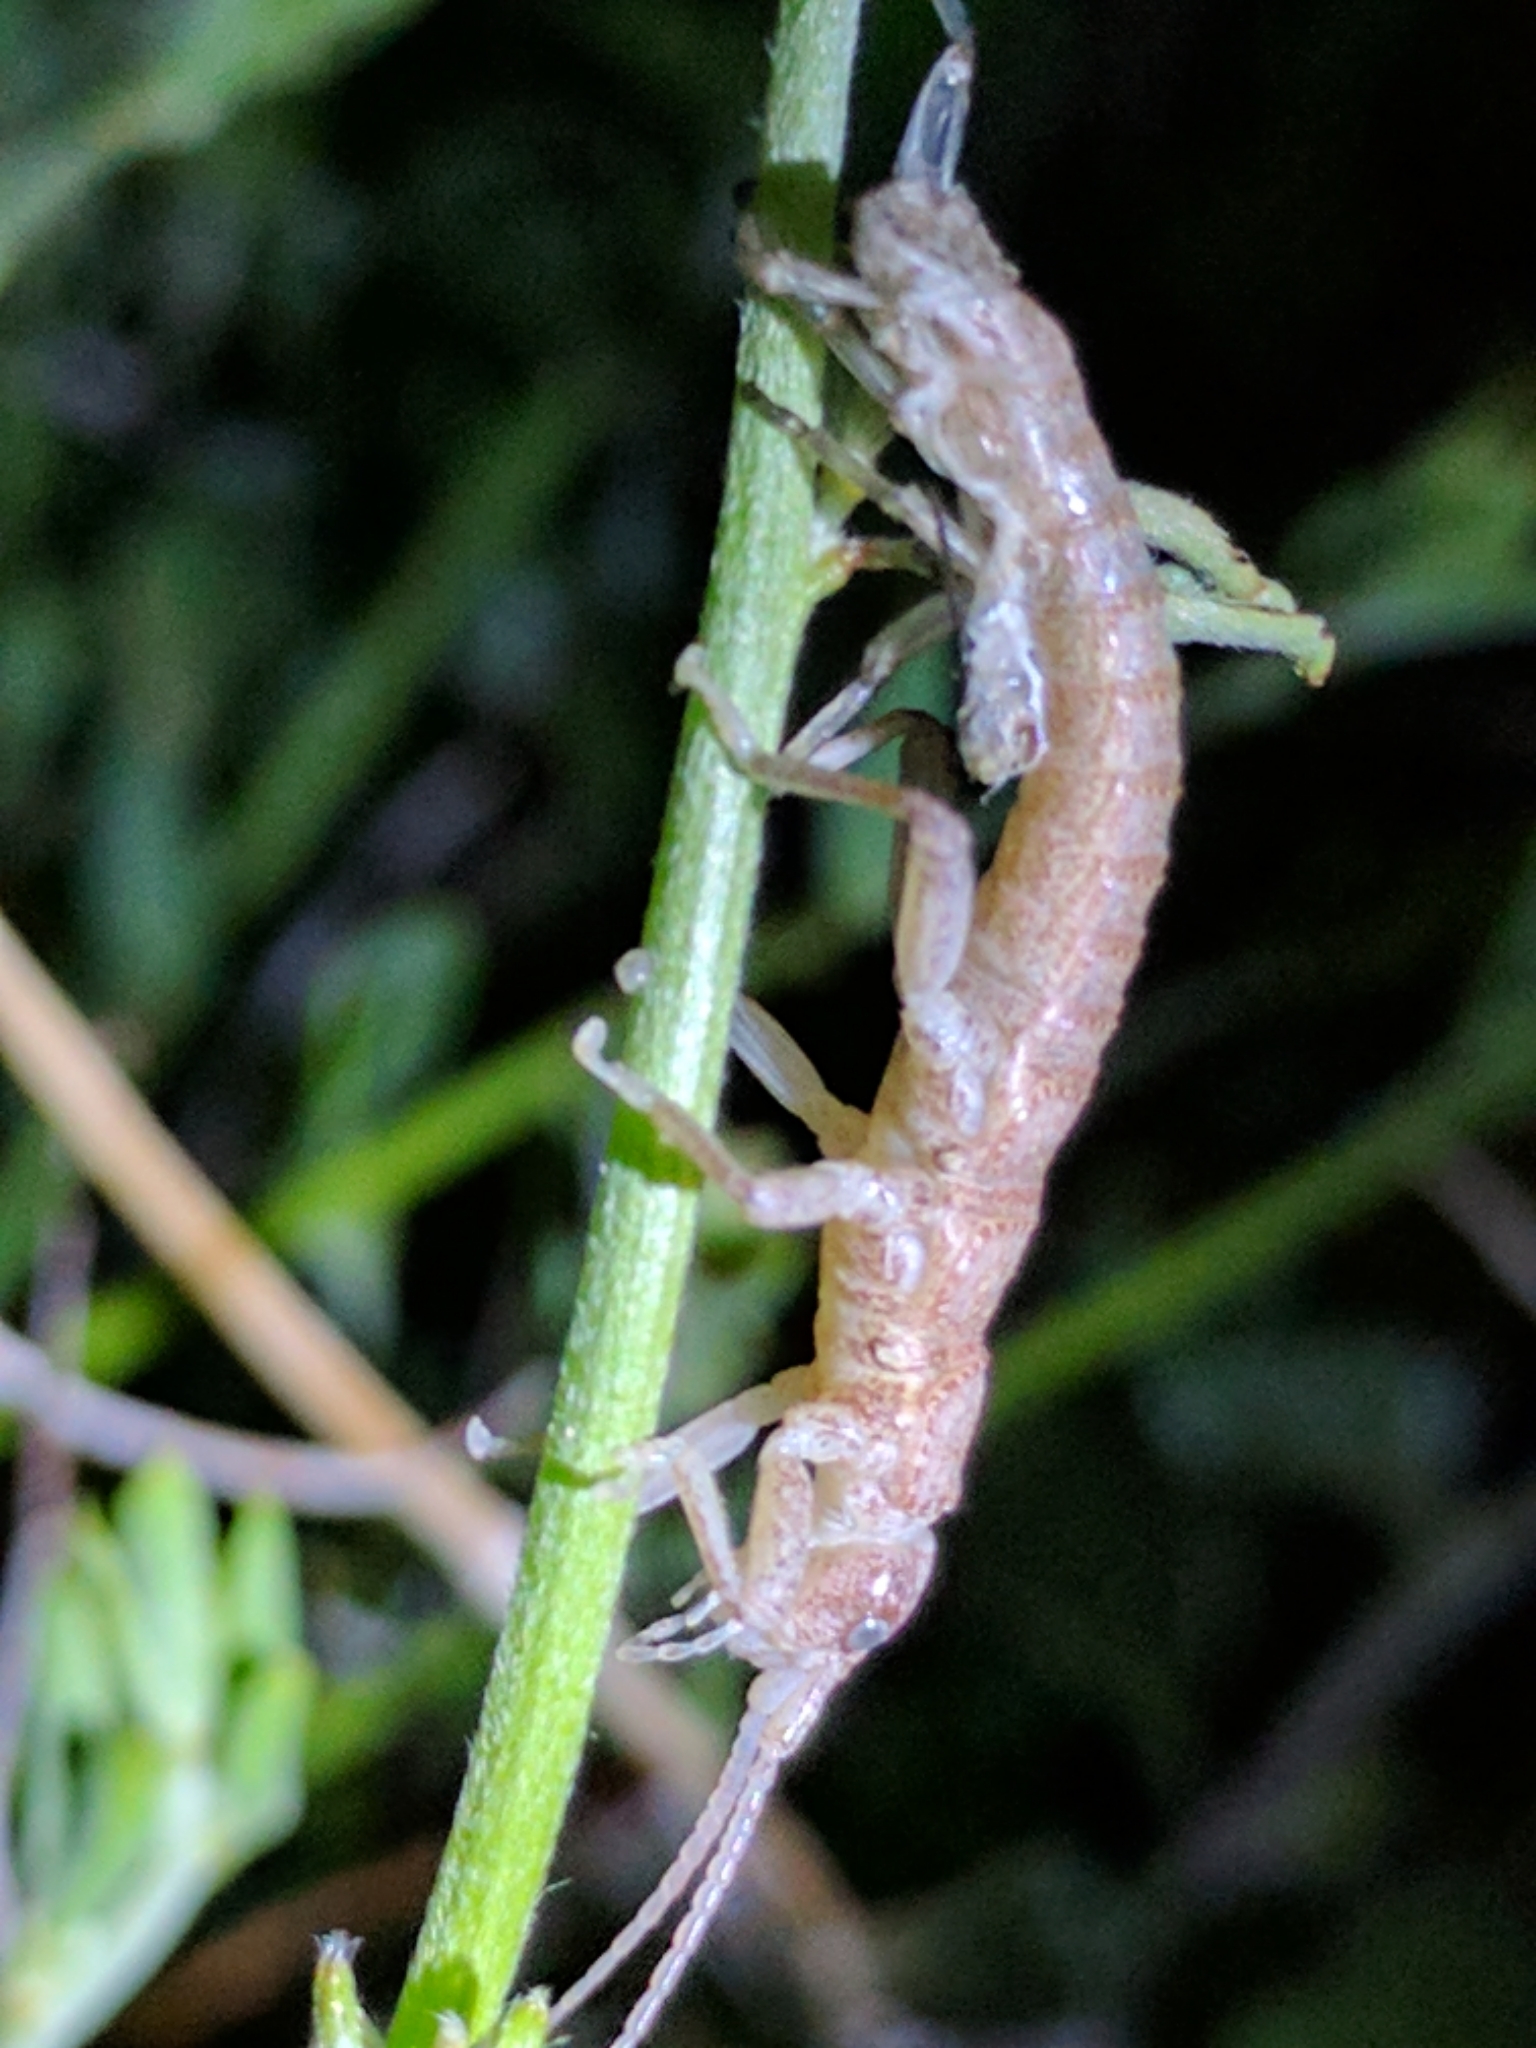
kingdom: Animalia
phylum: Arthropoda
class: Insecta
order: Phasmida
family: Timematidae
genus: Timema
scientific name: Timema boharti
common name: Bohart's timema
